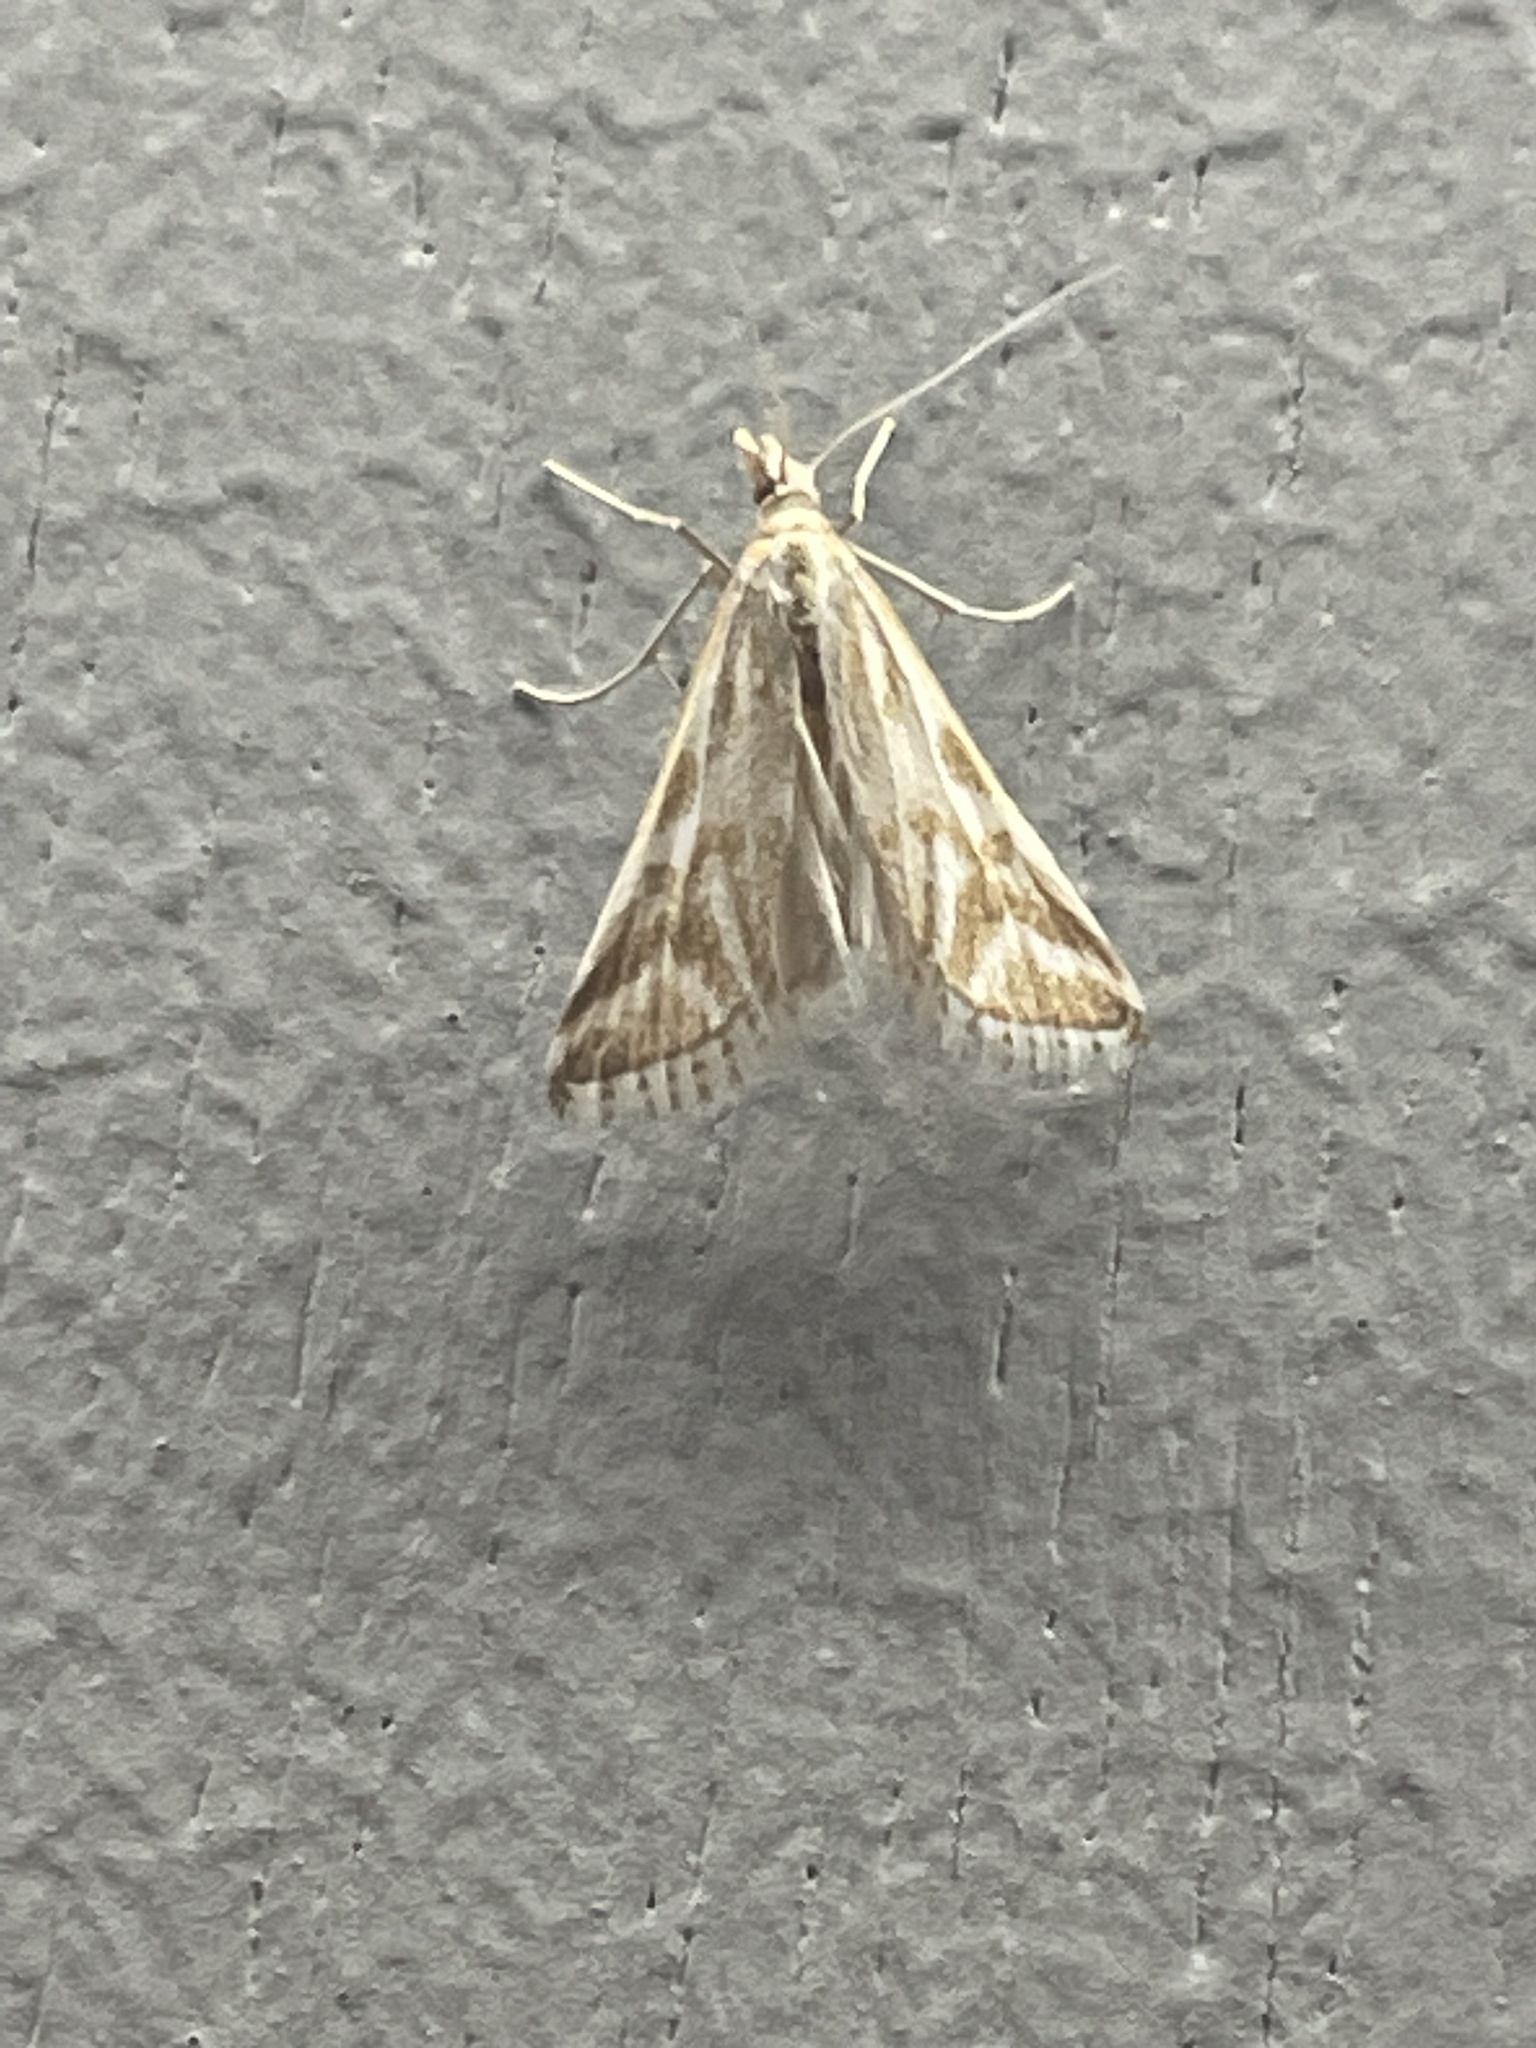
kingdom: Animalia
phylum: Arthropoda
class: Insecta
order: Lepidoptera
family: Crambidae
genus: Sedenia
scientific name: Sedenia rupalis
